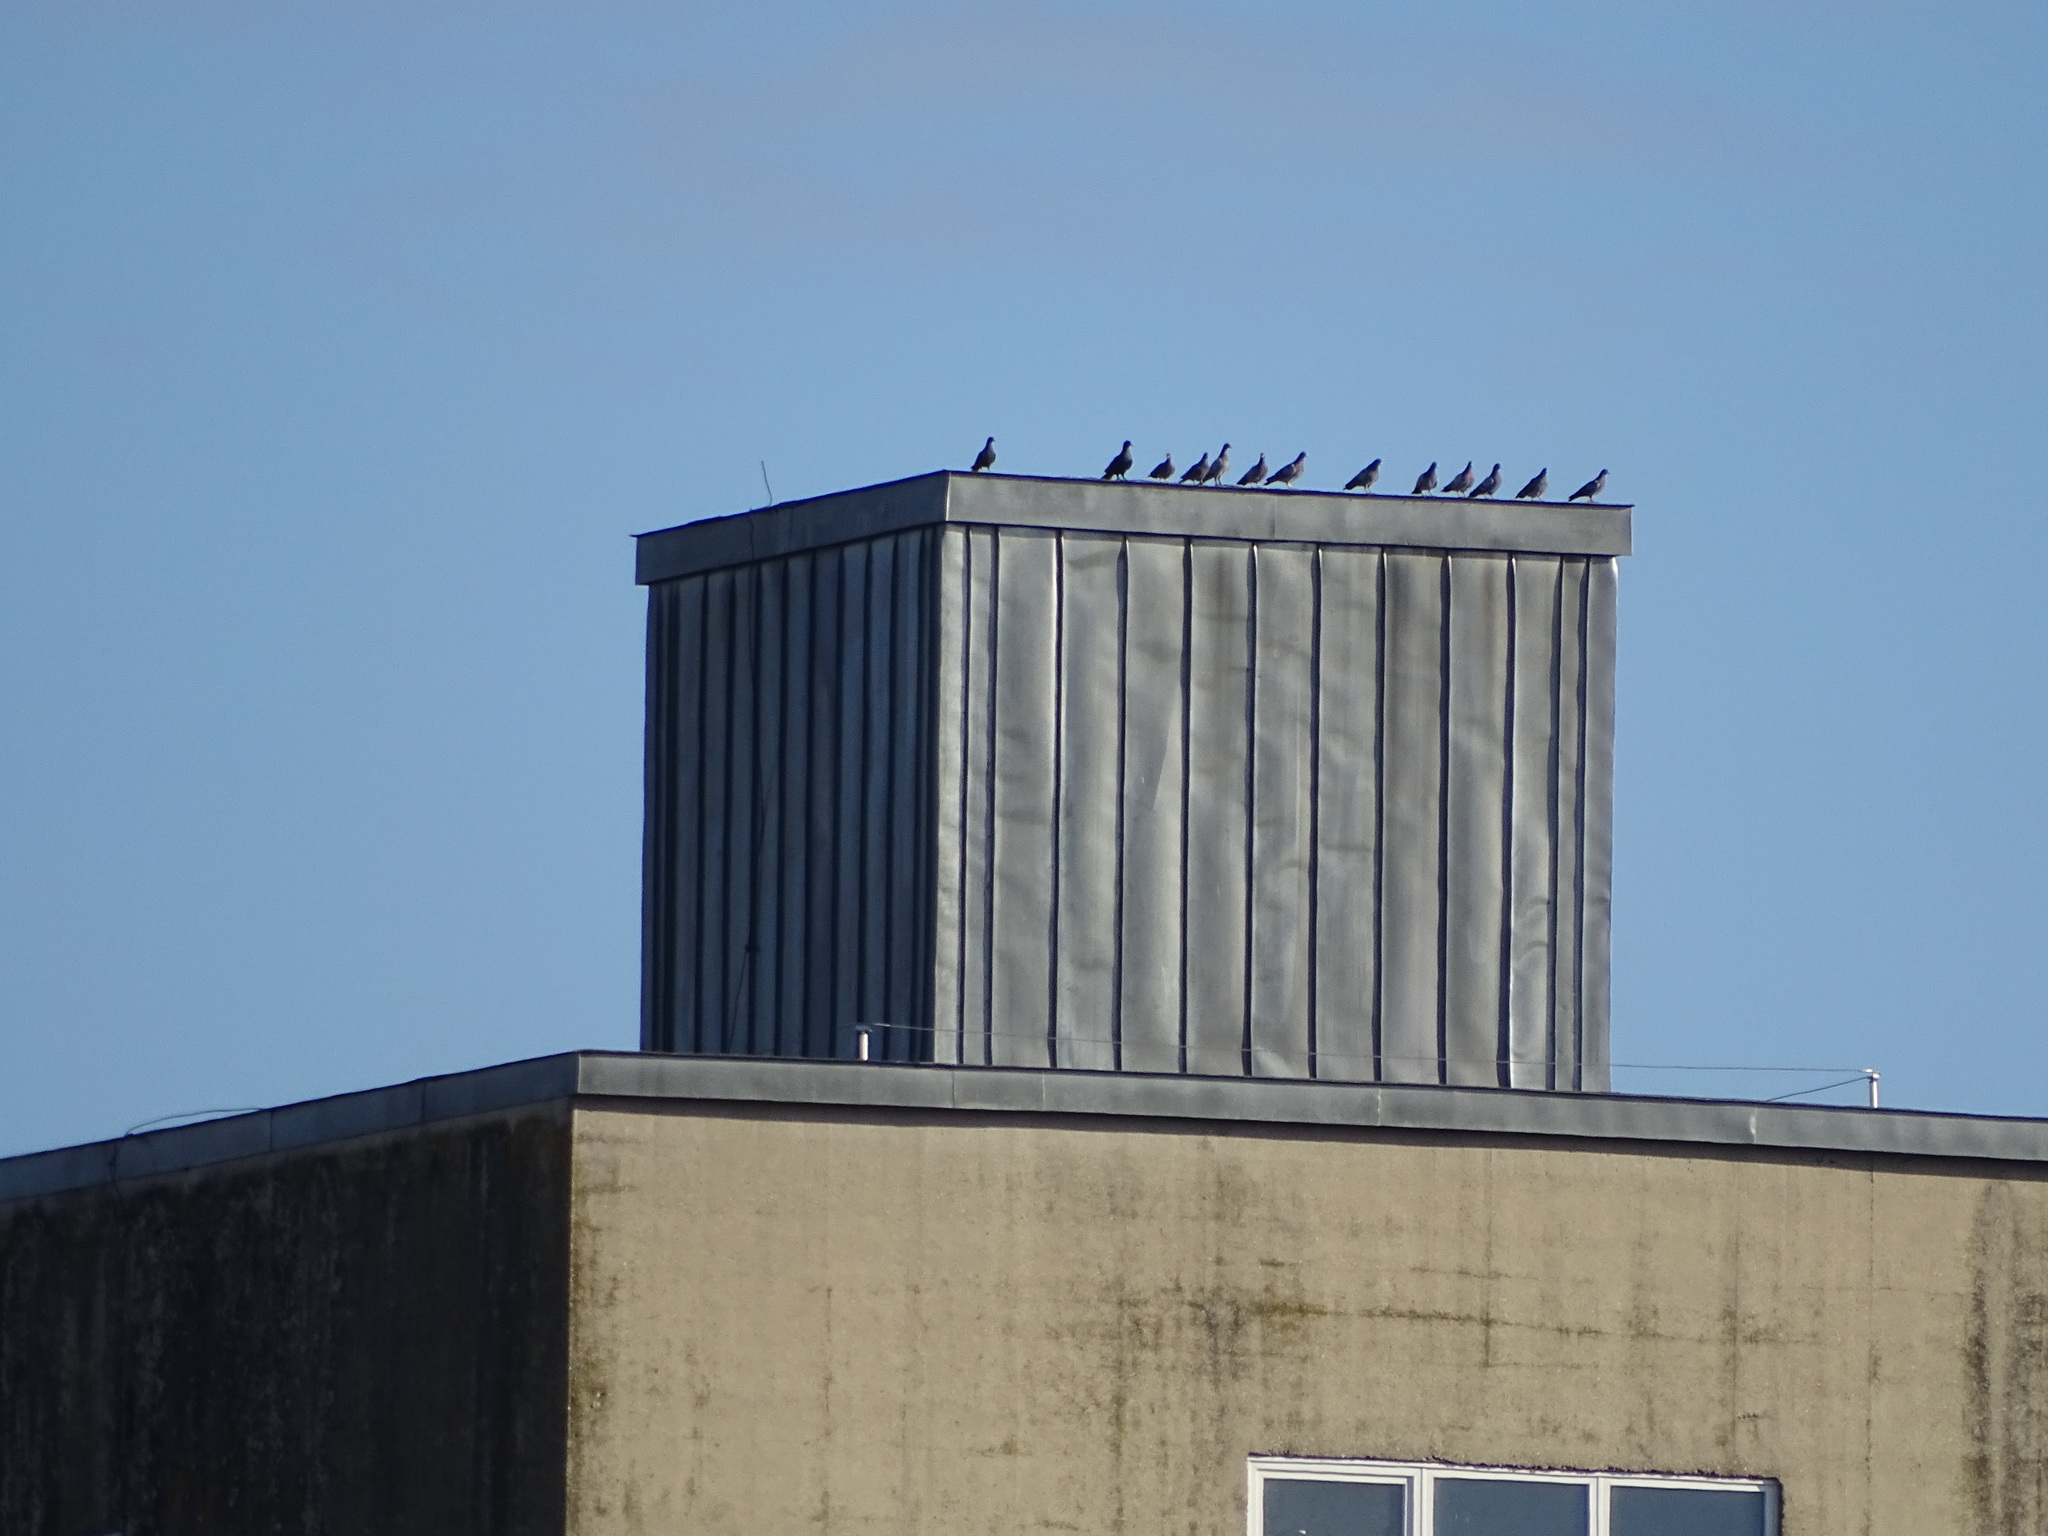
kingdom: Animalia
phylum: Chordata
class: Aves
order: Columbiformes
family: Columbidae
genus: Columba
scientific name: Columba livia
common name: Rock pigeon
